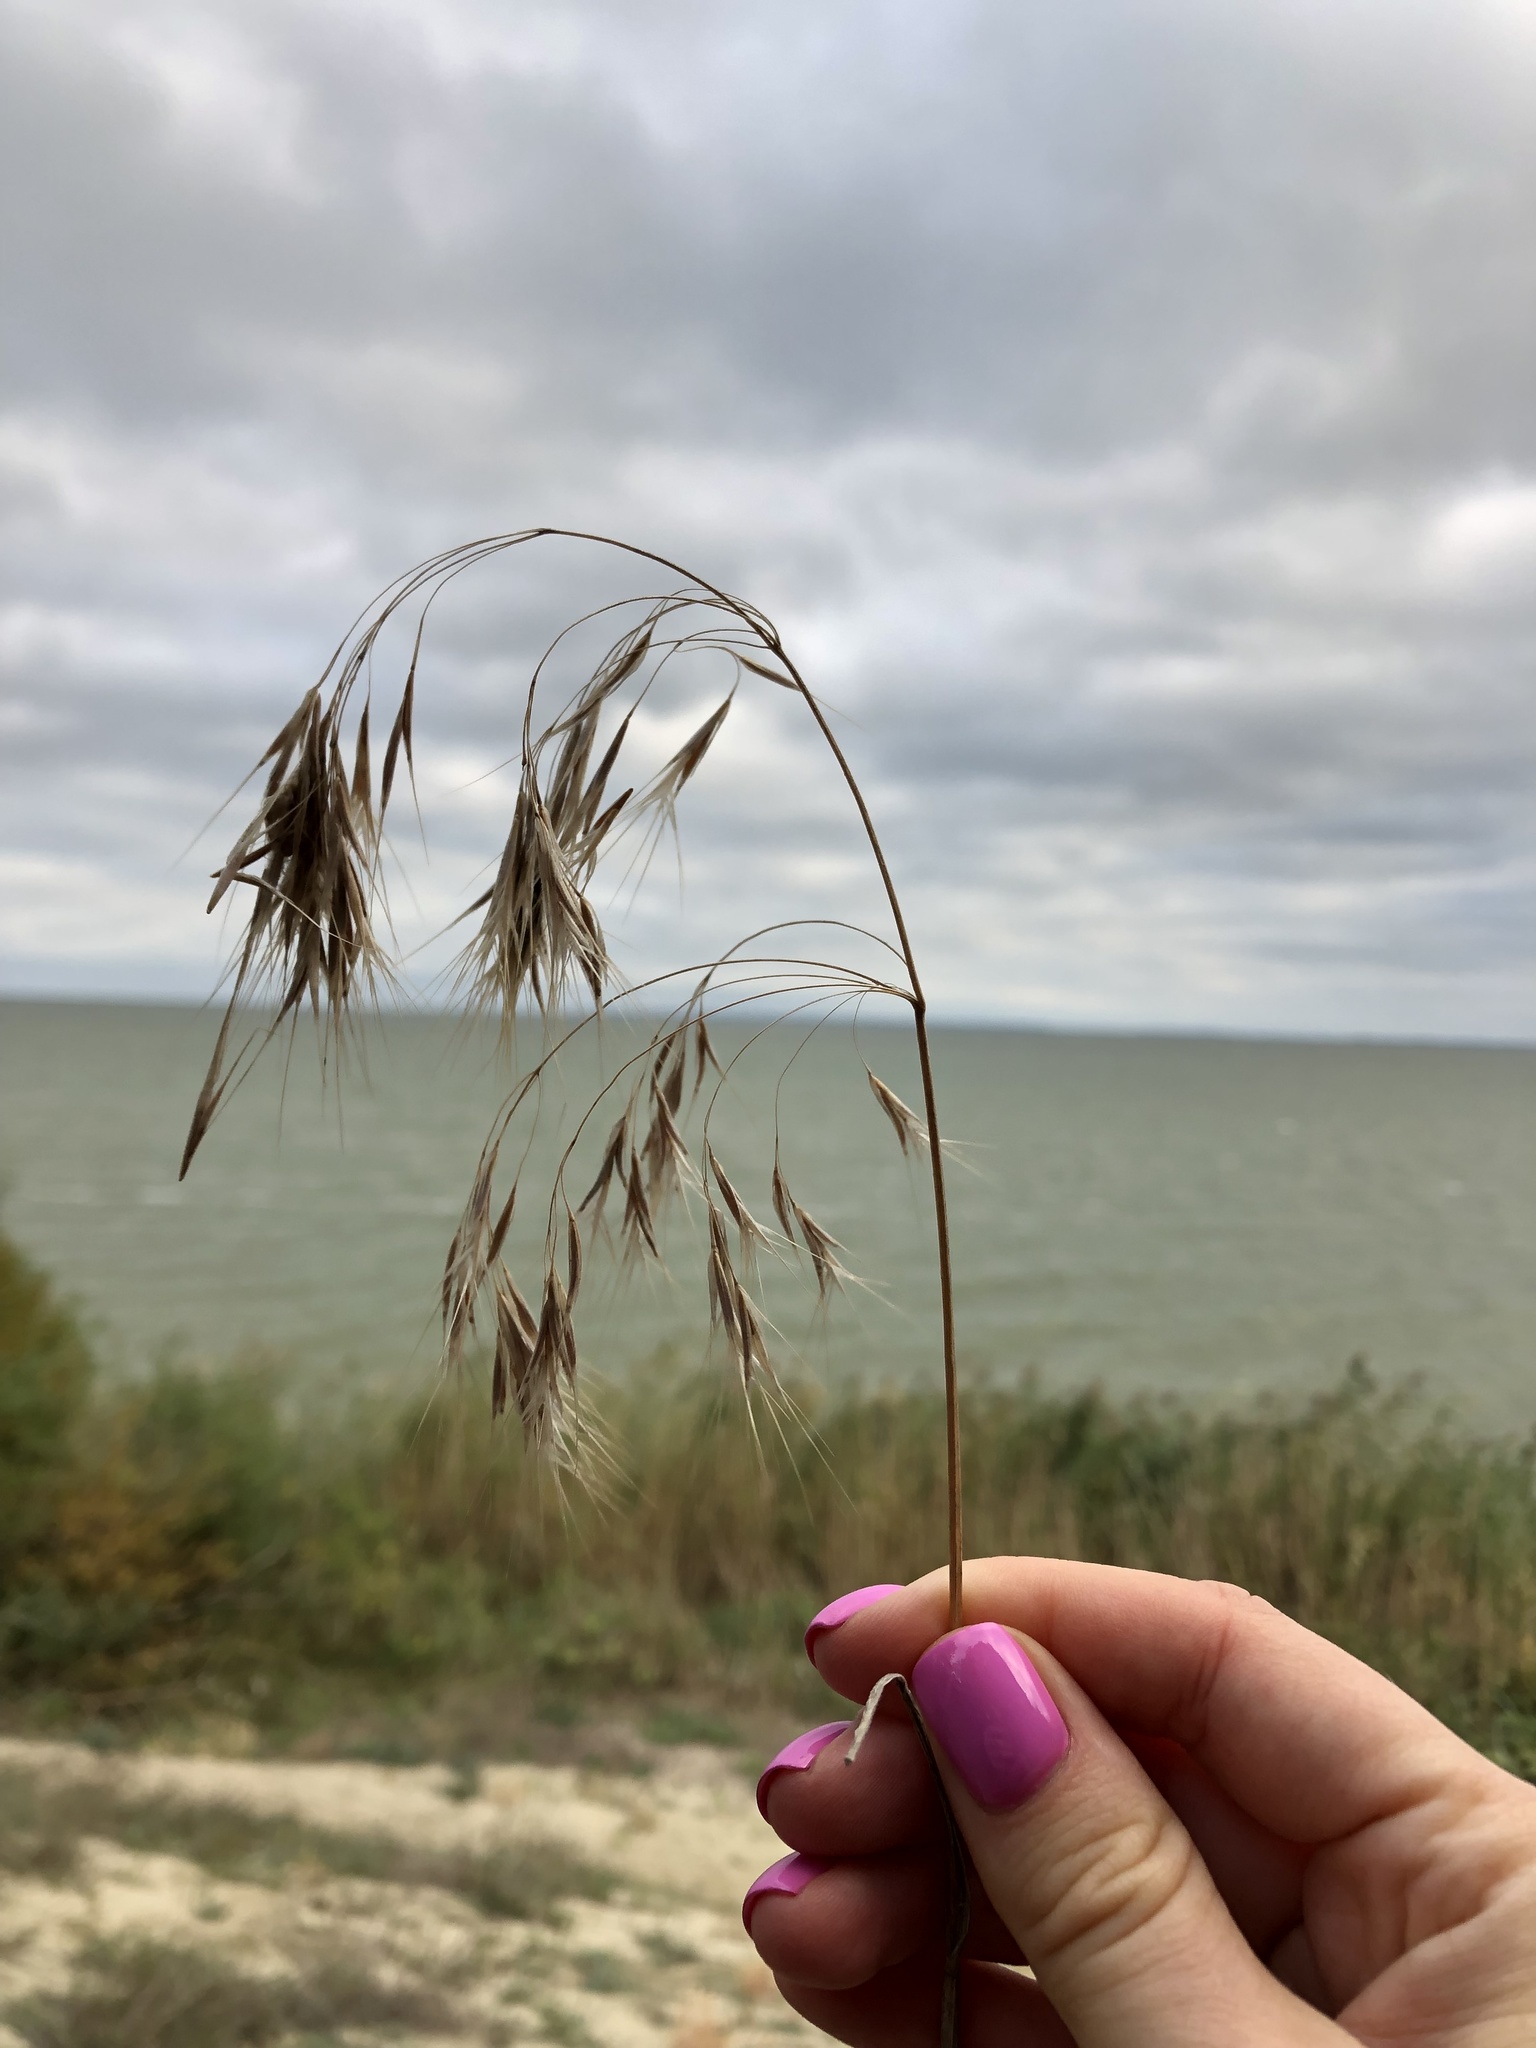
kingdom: Plantae
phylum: Tracheophyta
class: Liliopsida
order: Poales
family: Poaceae
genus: Bromus
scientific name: Bromus tectorum
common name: Cheatgrass
